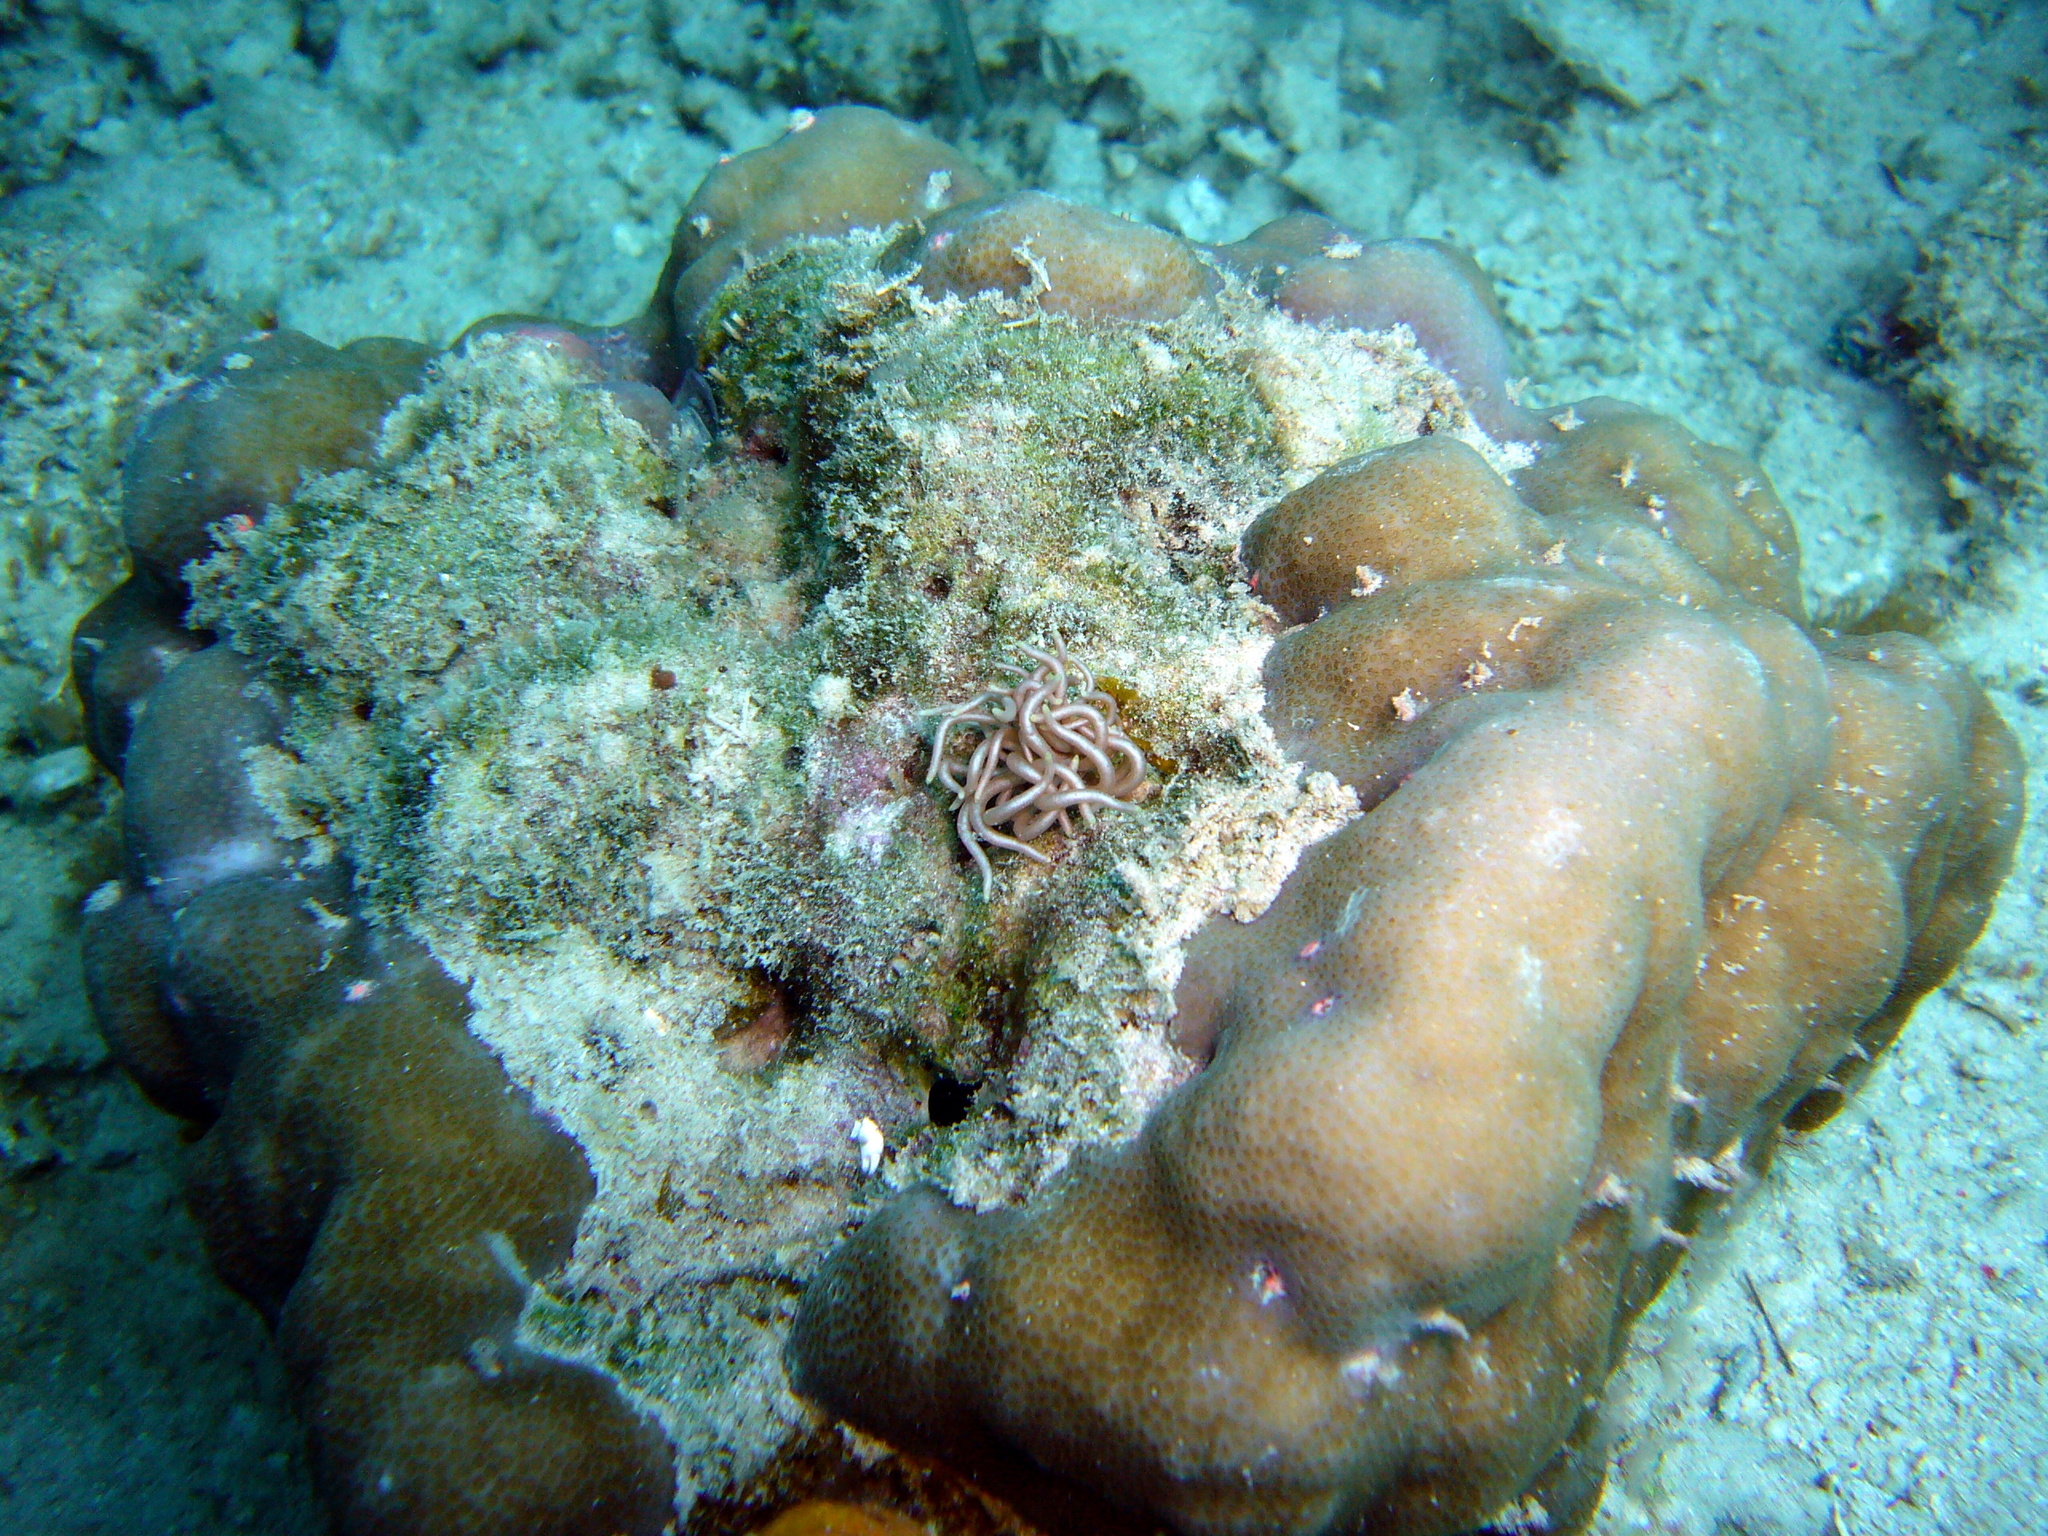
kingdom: Animalia
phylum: Mollusca
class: Gastropoda
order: Nudibranchia
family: Myrrhinidae
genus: Phyllodesmium
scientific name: Phyllodesmium briareum
